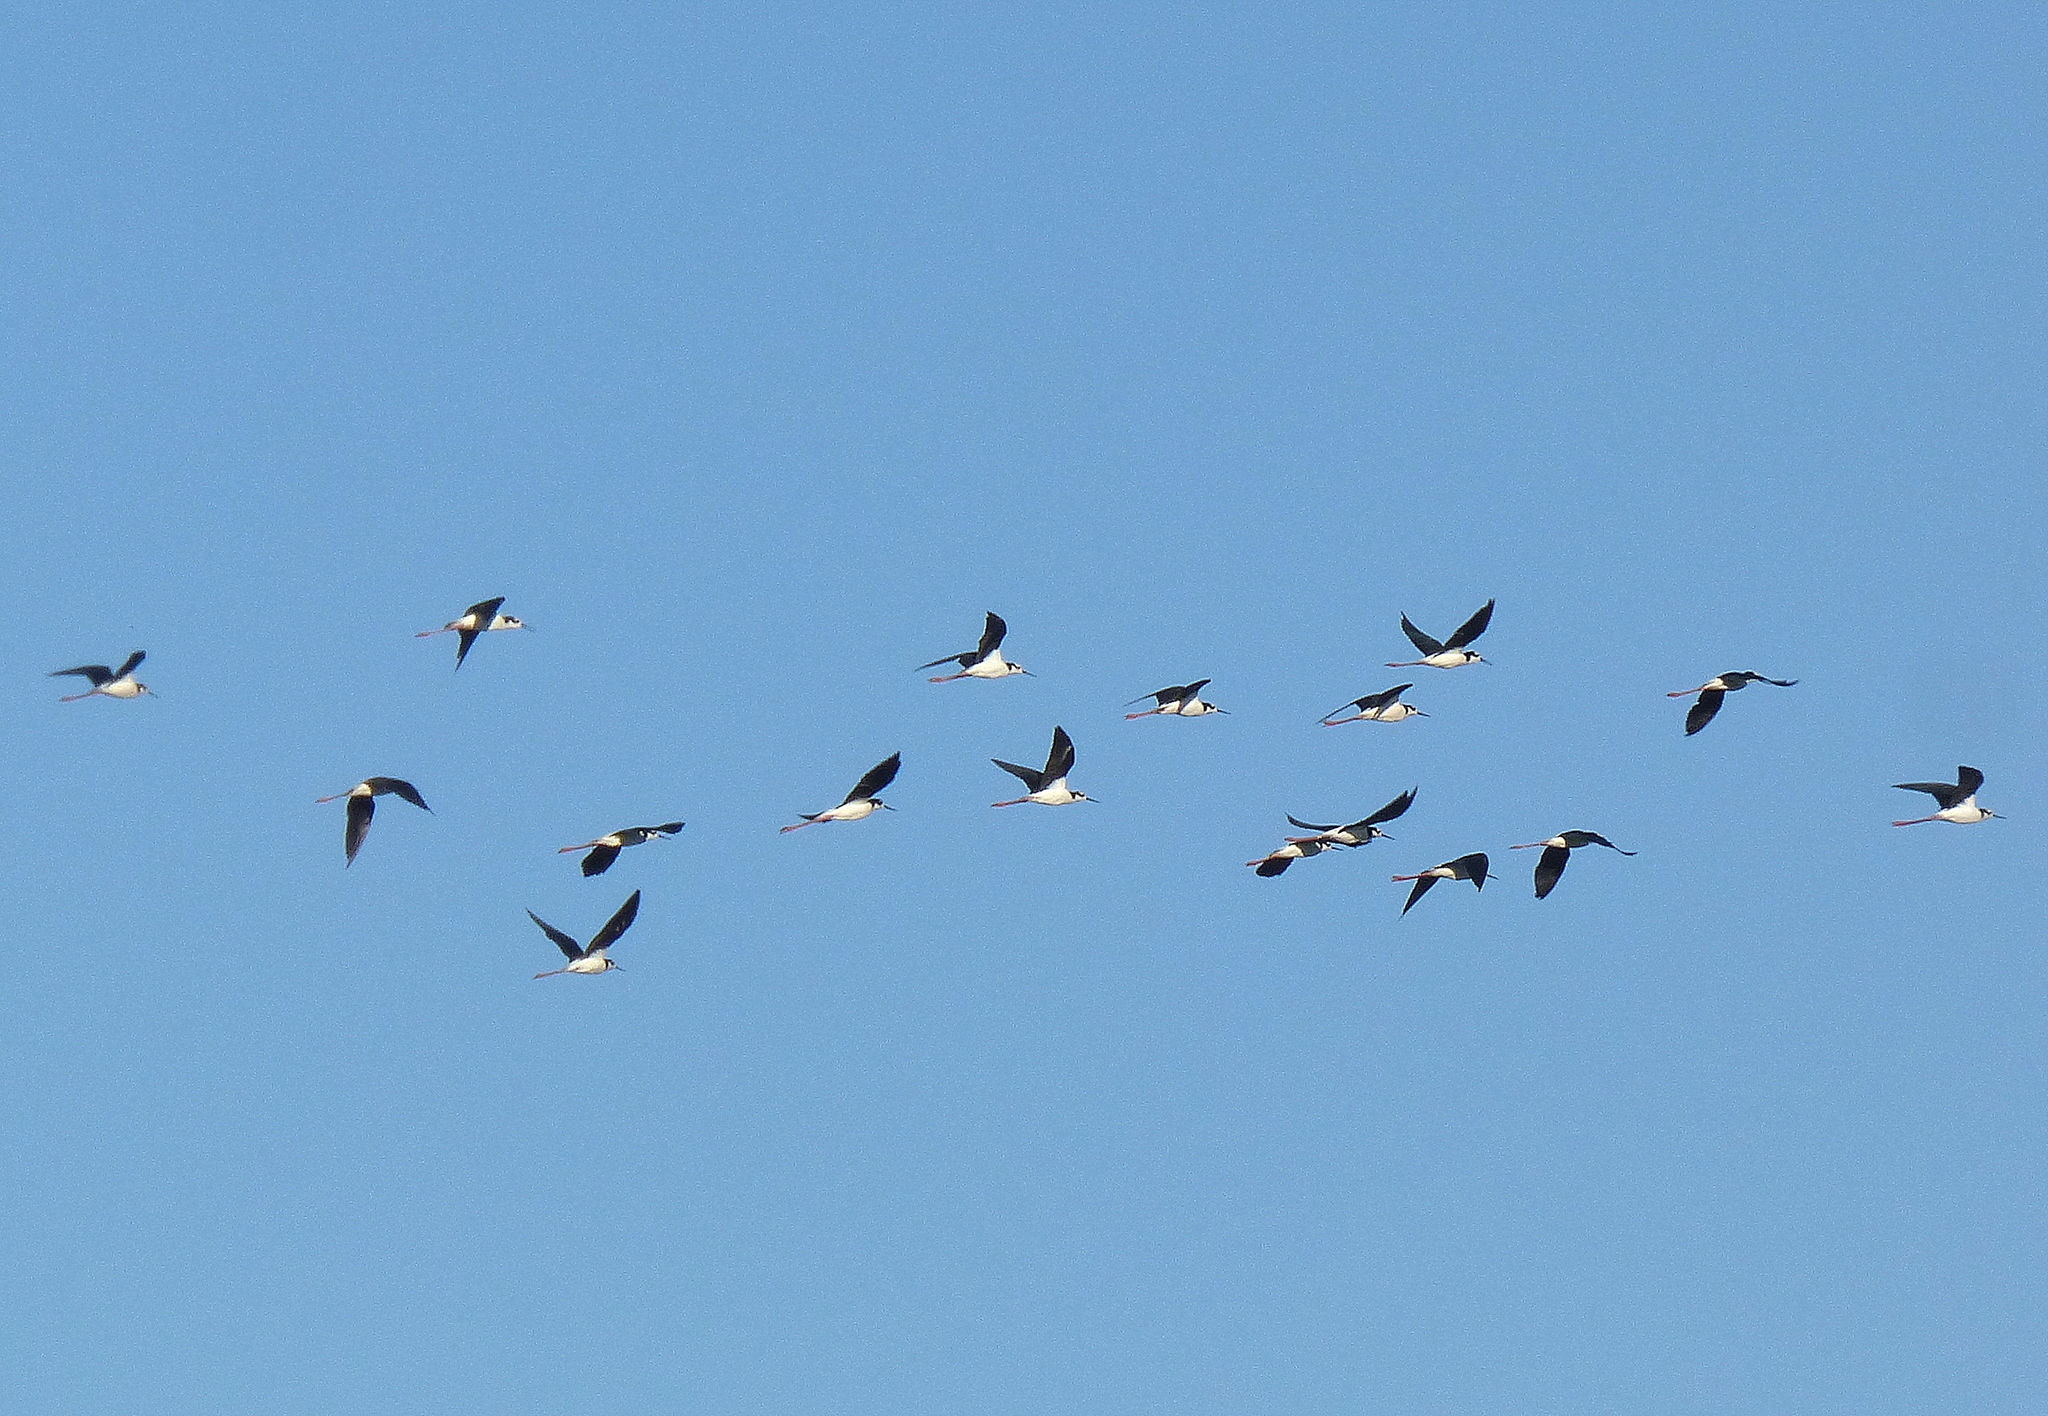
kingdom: Animalia
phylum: Chordata
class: Aves
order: Charadriiformes
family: Recurvirostridae
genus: Himantopus
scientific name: Himantopus mexicanus
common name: Black-necked stilt
